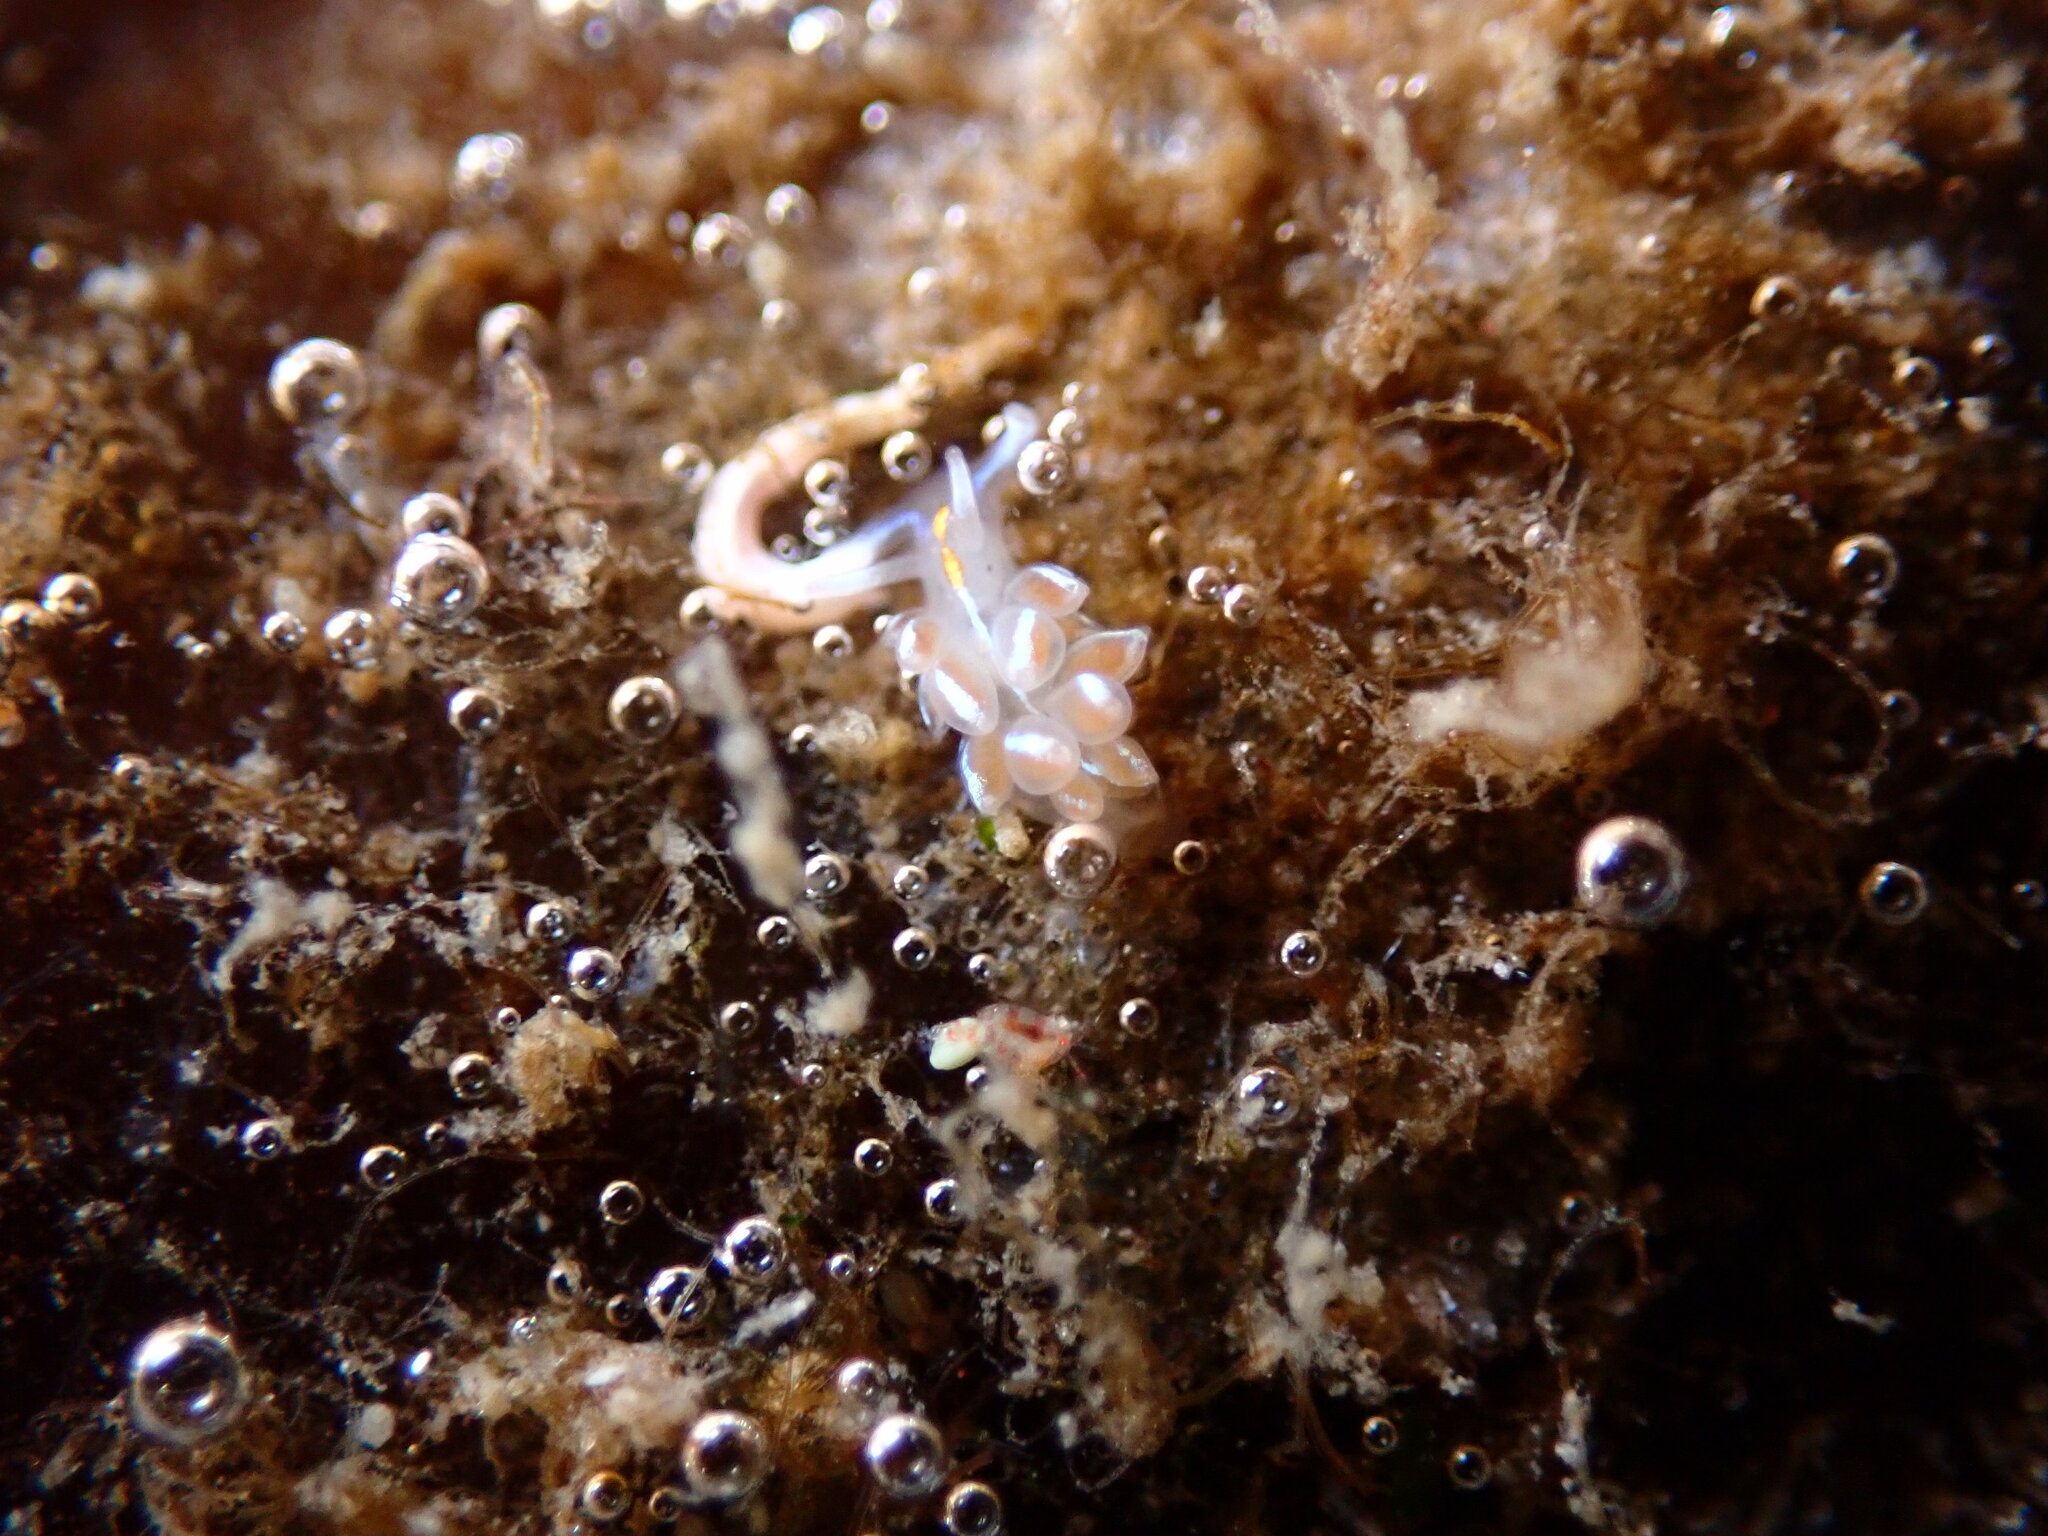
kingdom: Animalia
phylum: Mollusca
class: Gastropoda
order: Nudibranchia
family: Myrrhinidae
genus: Hermissenda
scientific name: Hermissenda crassicornis
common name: Hermissenda
